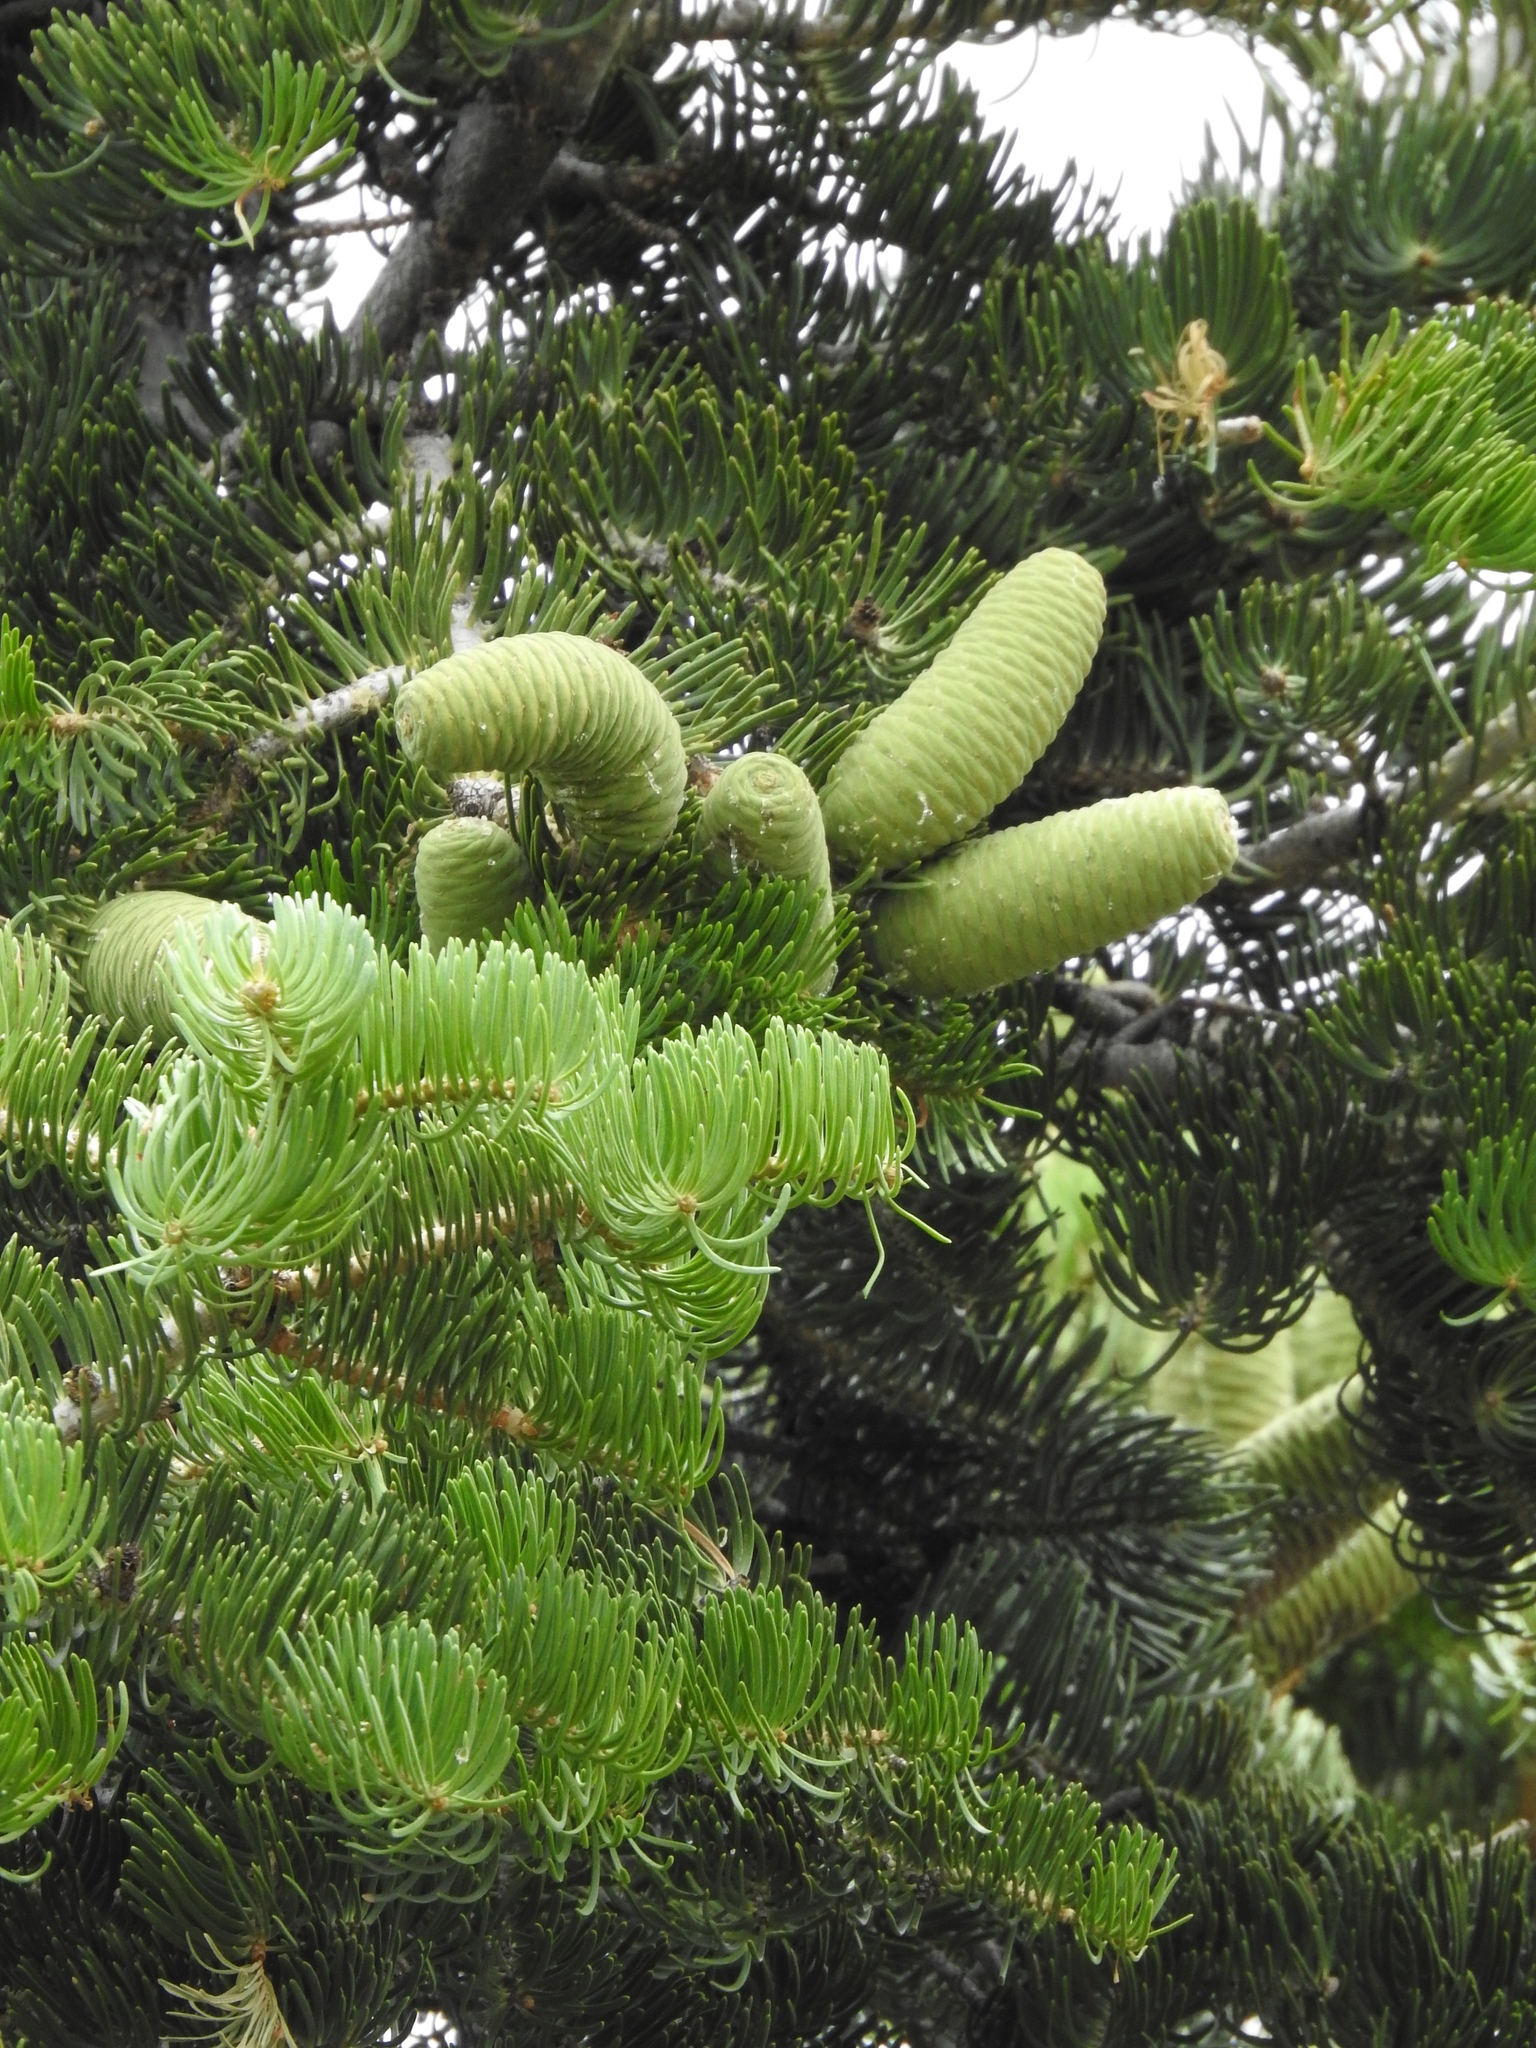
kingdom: Plantae
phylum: Tracheophyta
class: Pinopsida
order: Pinales
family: Pinaceae
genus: Abies
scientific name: Abies concolor
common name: Colorado fir
